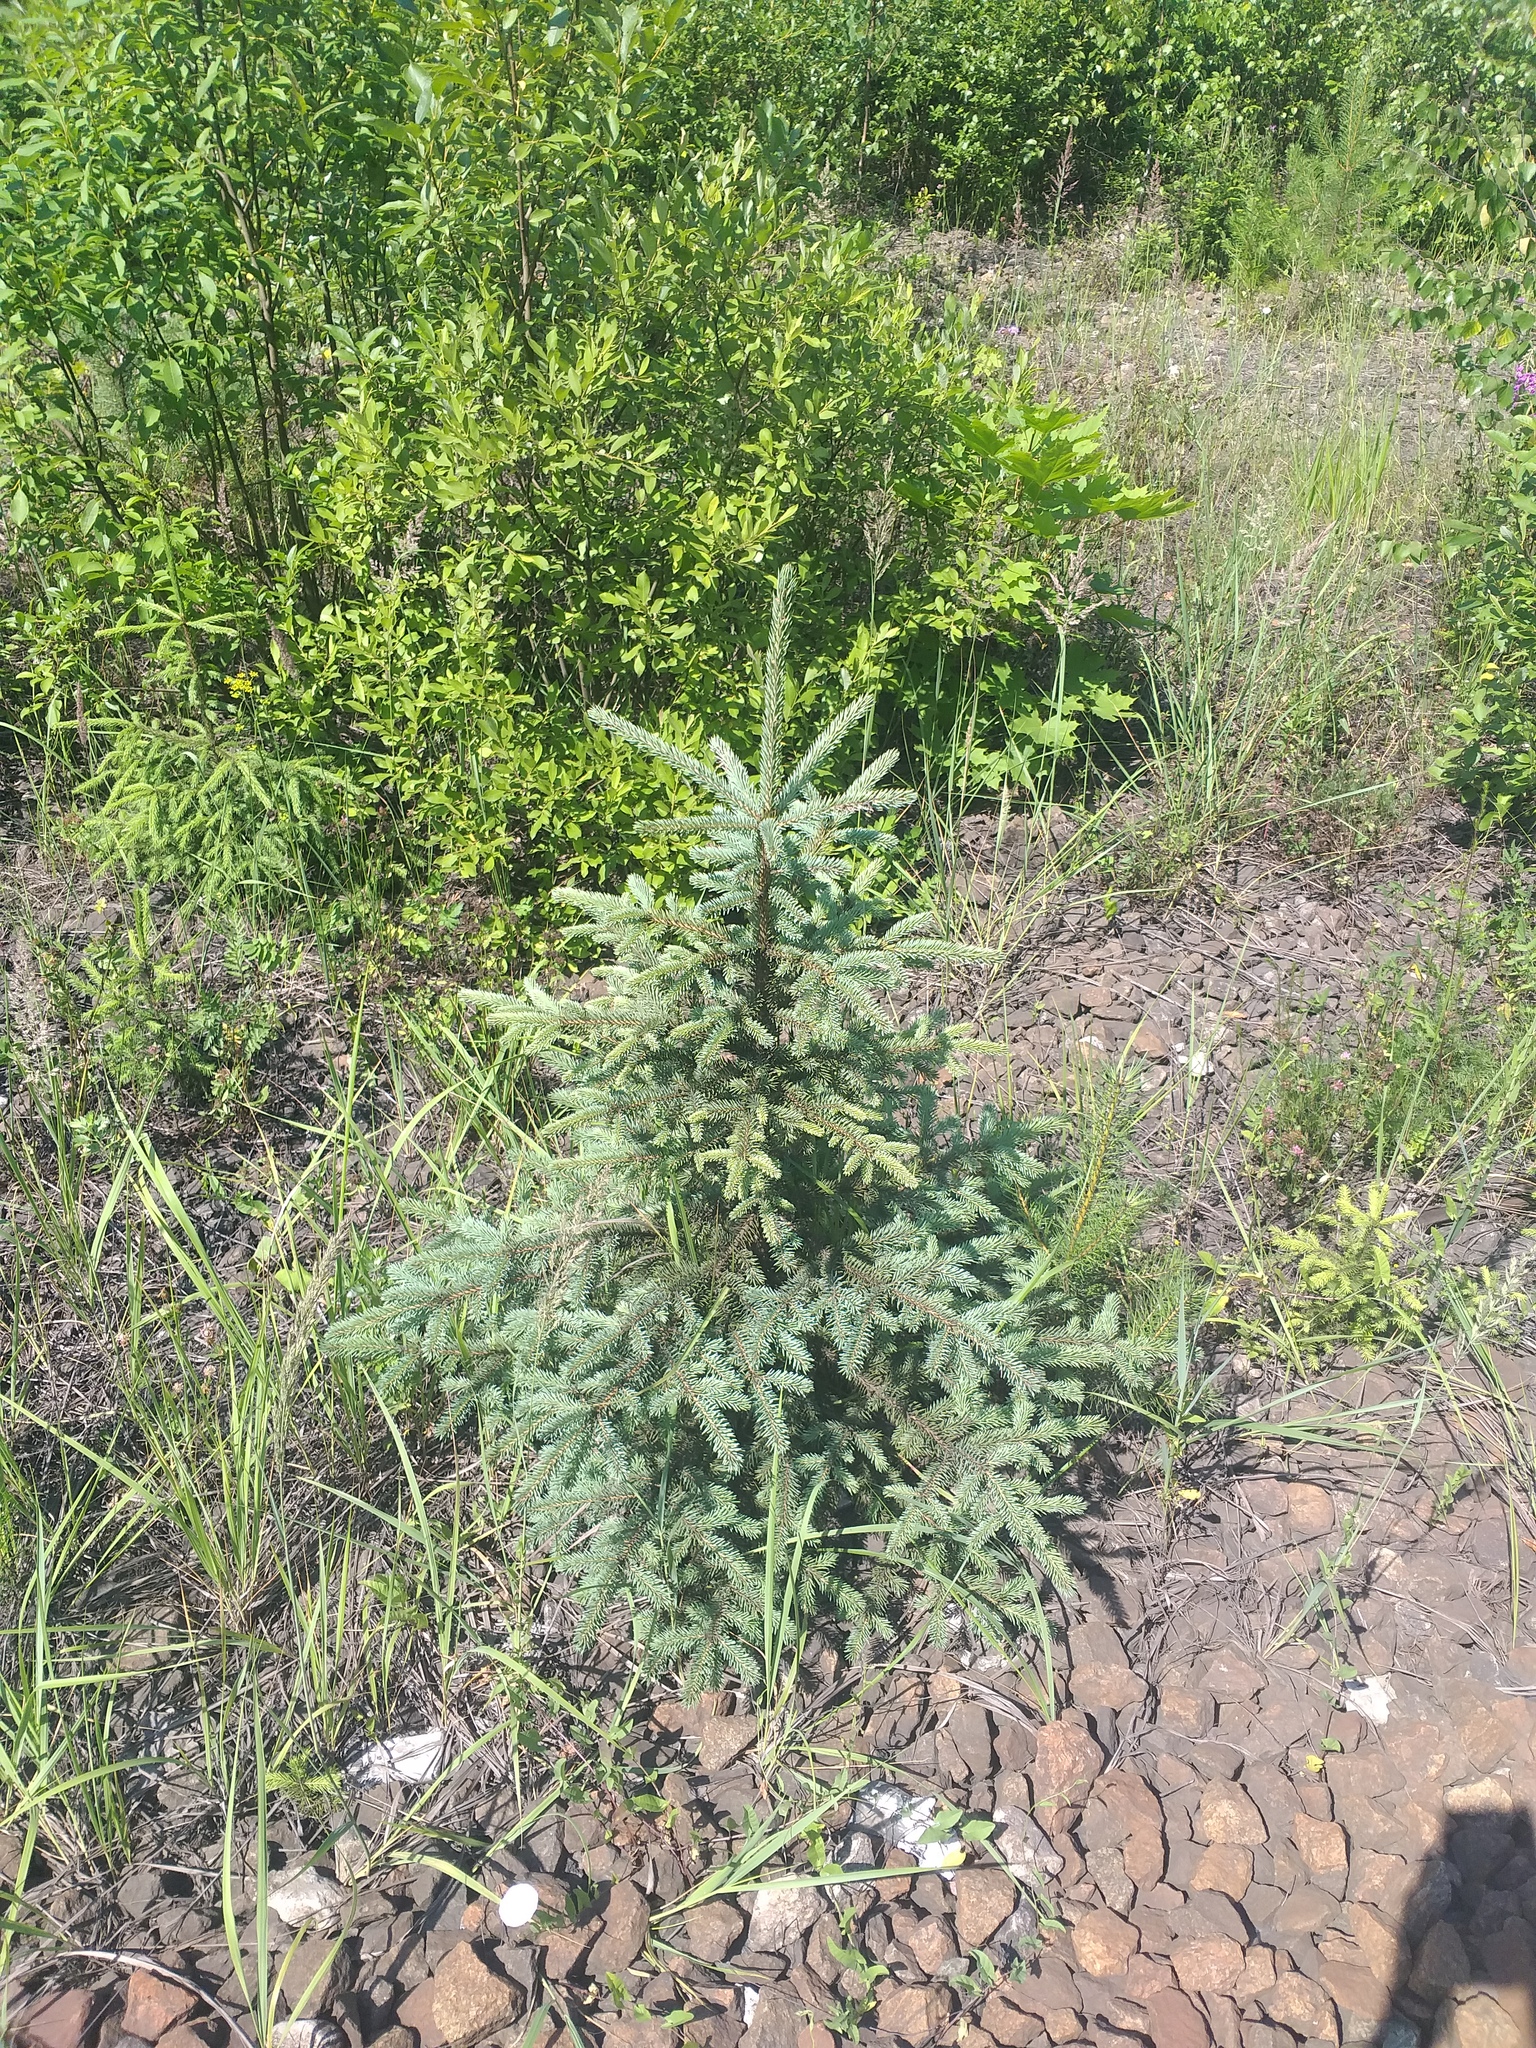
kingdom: Plantae
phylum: Tracheophyta
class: Pinopsida
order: Pinales
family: Pinaceae
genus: Picea
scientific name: Picea pungens
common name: Colorado spruce
